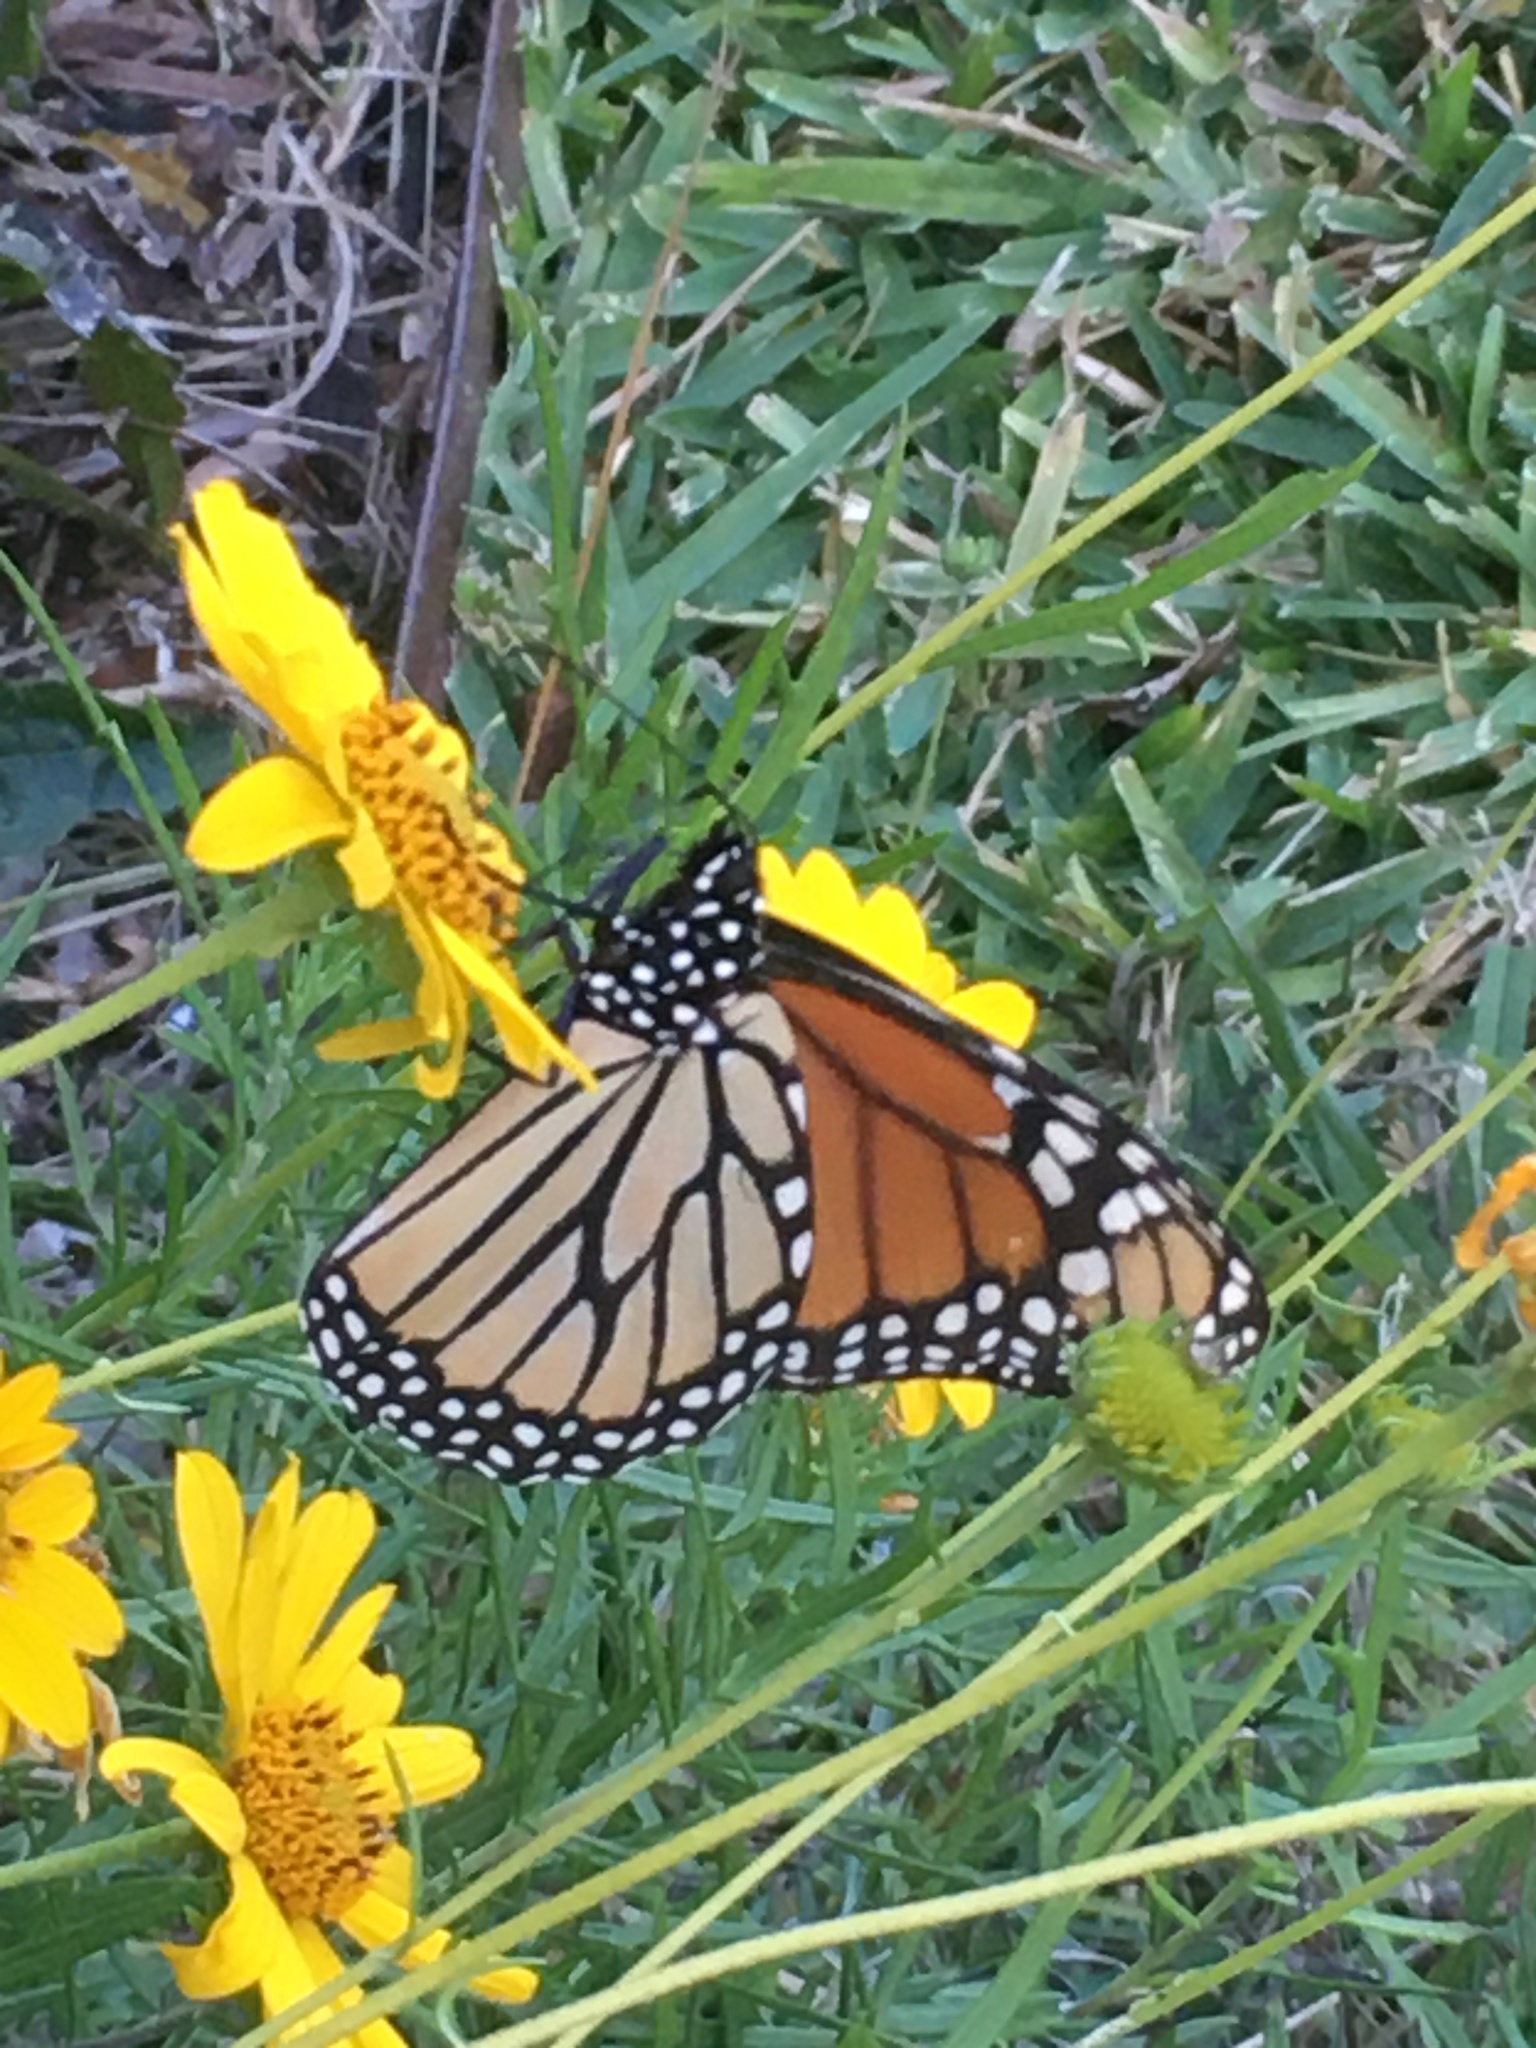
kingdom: Animalia
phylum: Arthropoda
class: Insecta
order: Lepidoptera
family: Nymphalidae
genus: Danaus
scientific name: Danaus plexippus
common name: Monarch
